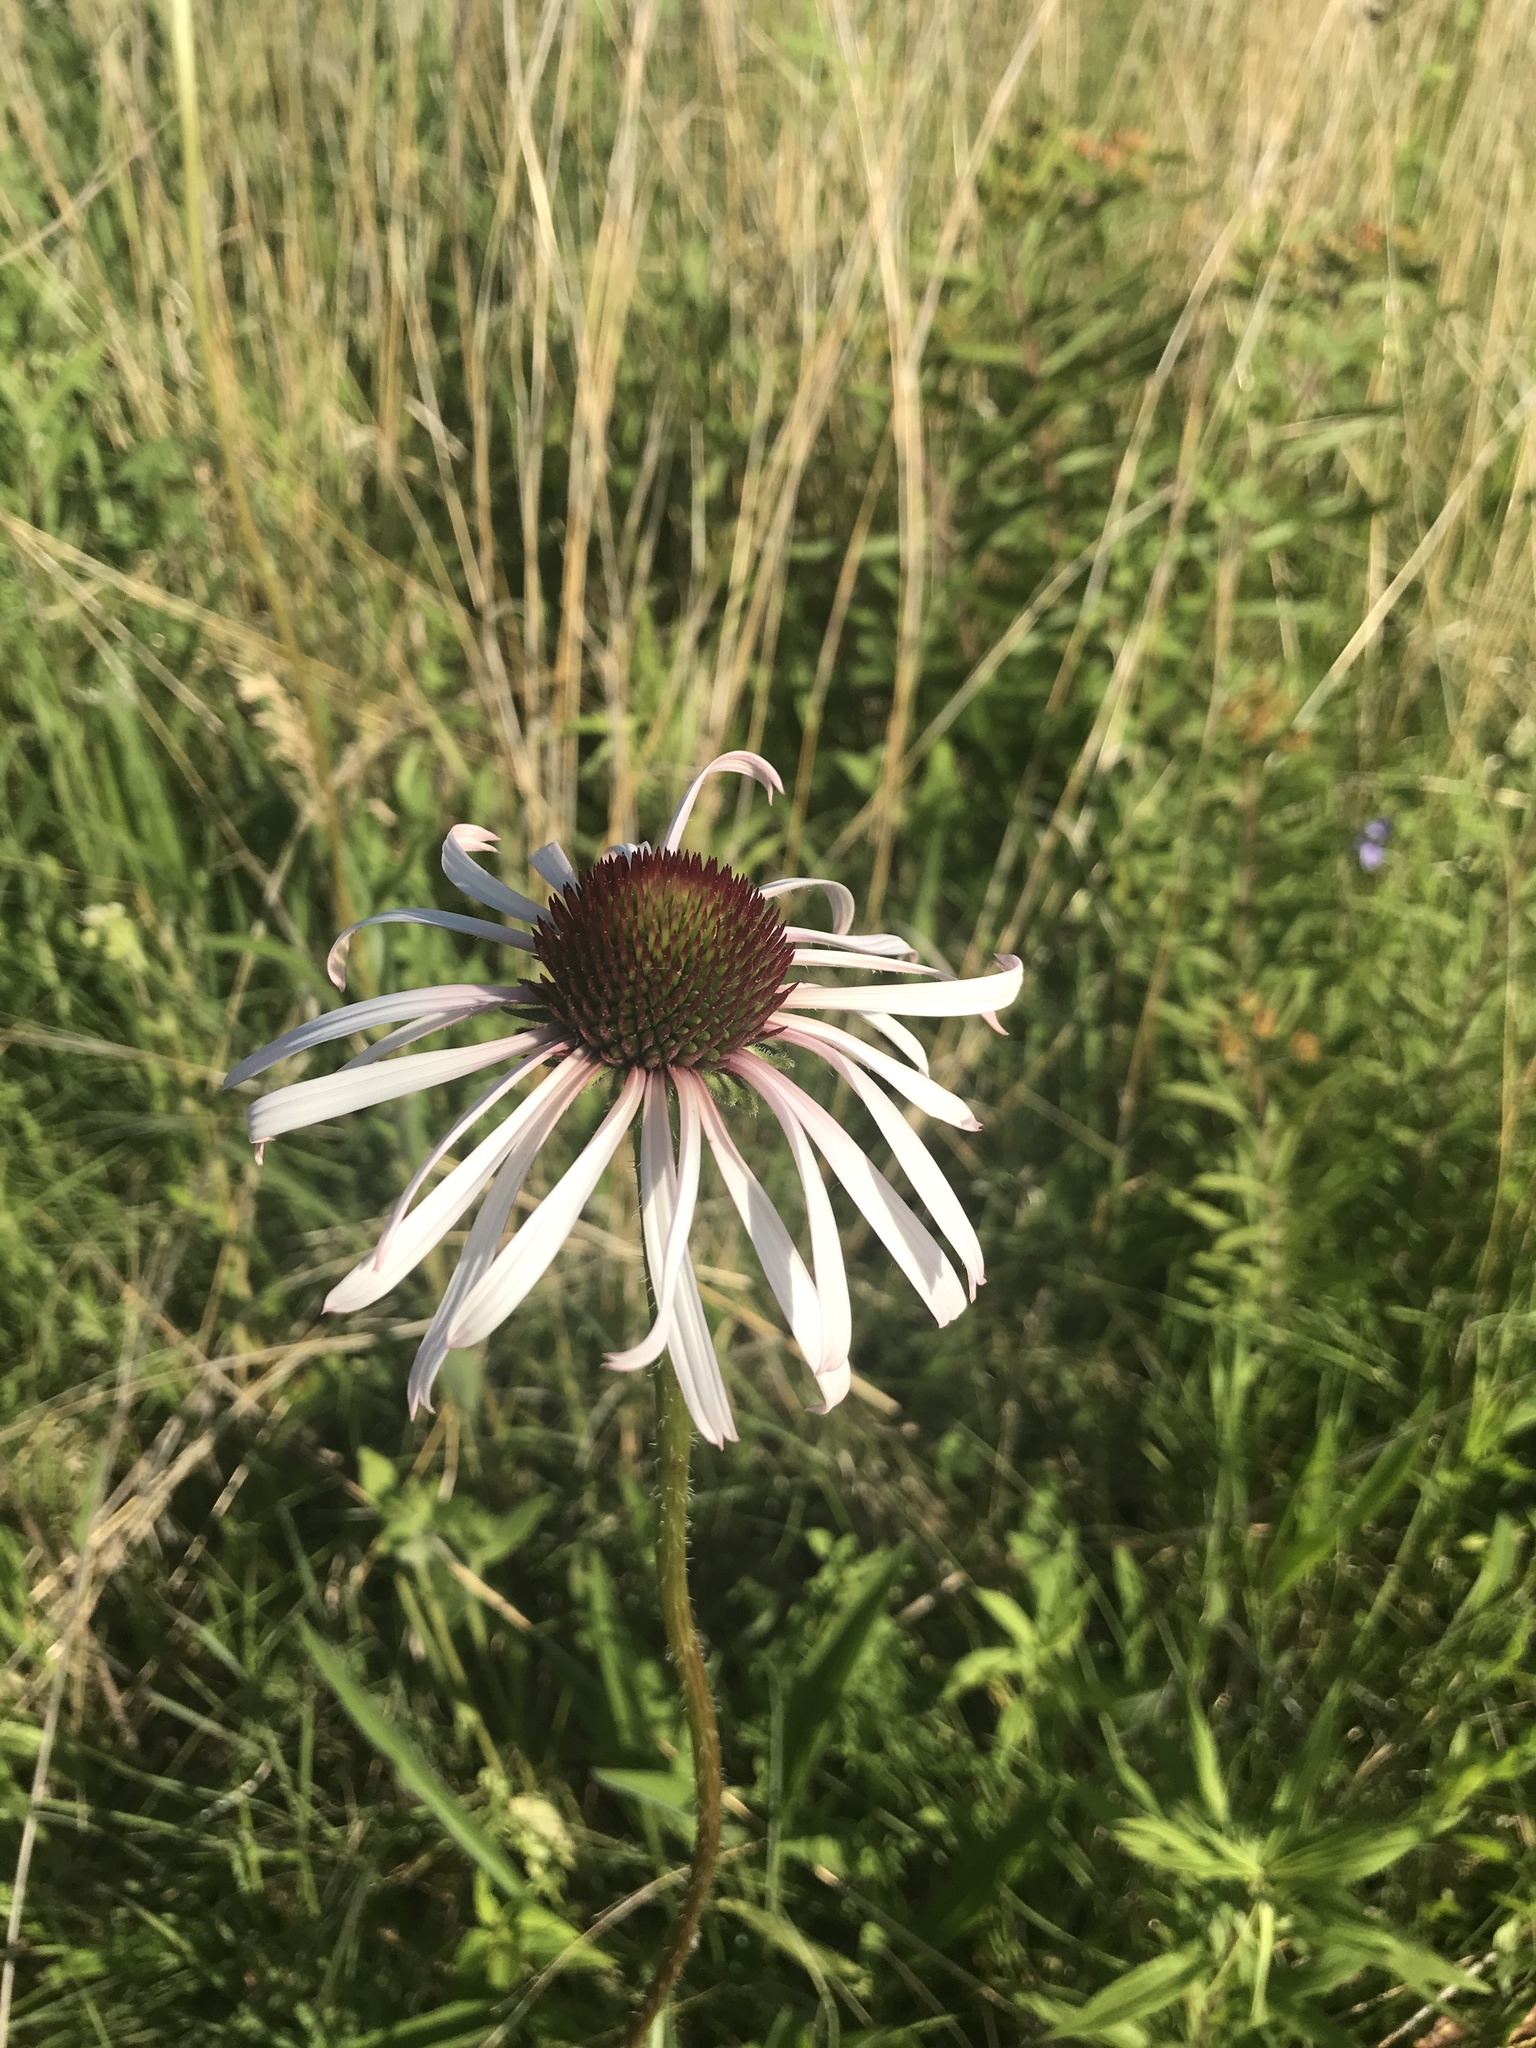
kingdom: Plantae
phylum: Tracheophyta
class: Magnoliopsida
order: Asterales
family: Asteraceae
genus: Echinacea
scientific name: Echinacea pallida
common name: Pale echinacea
